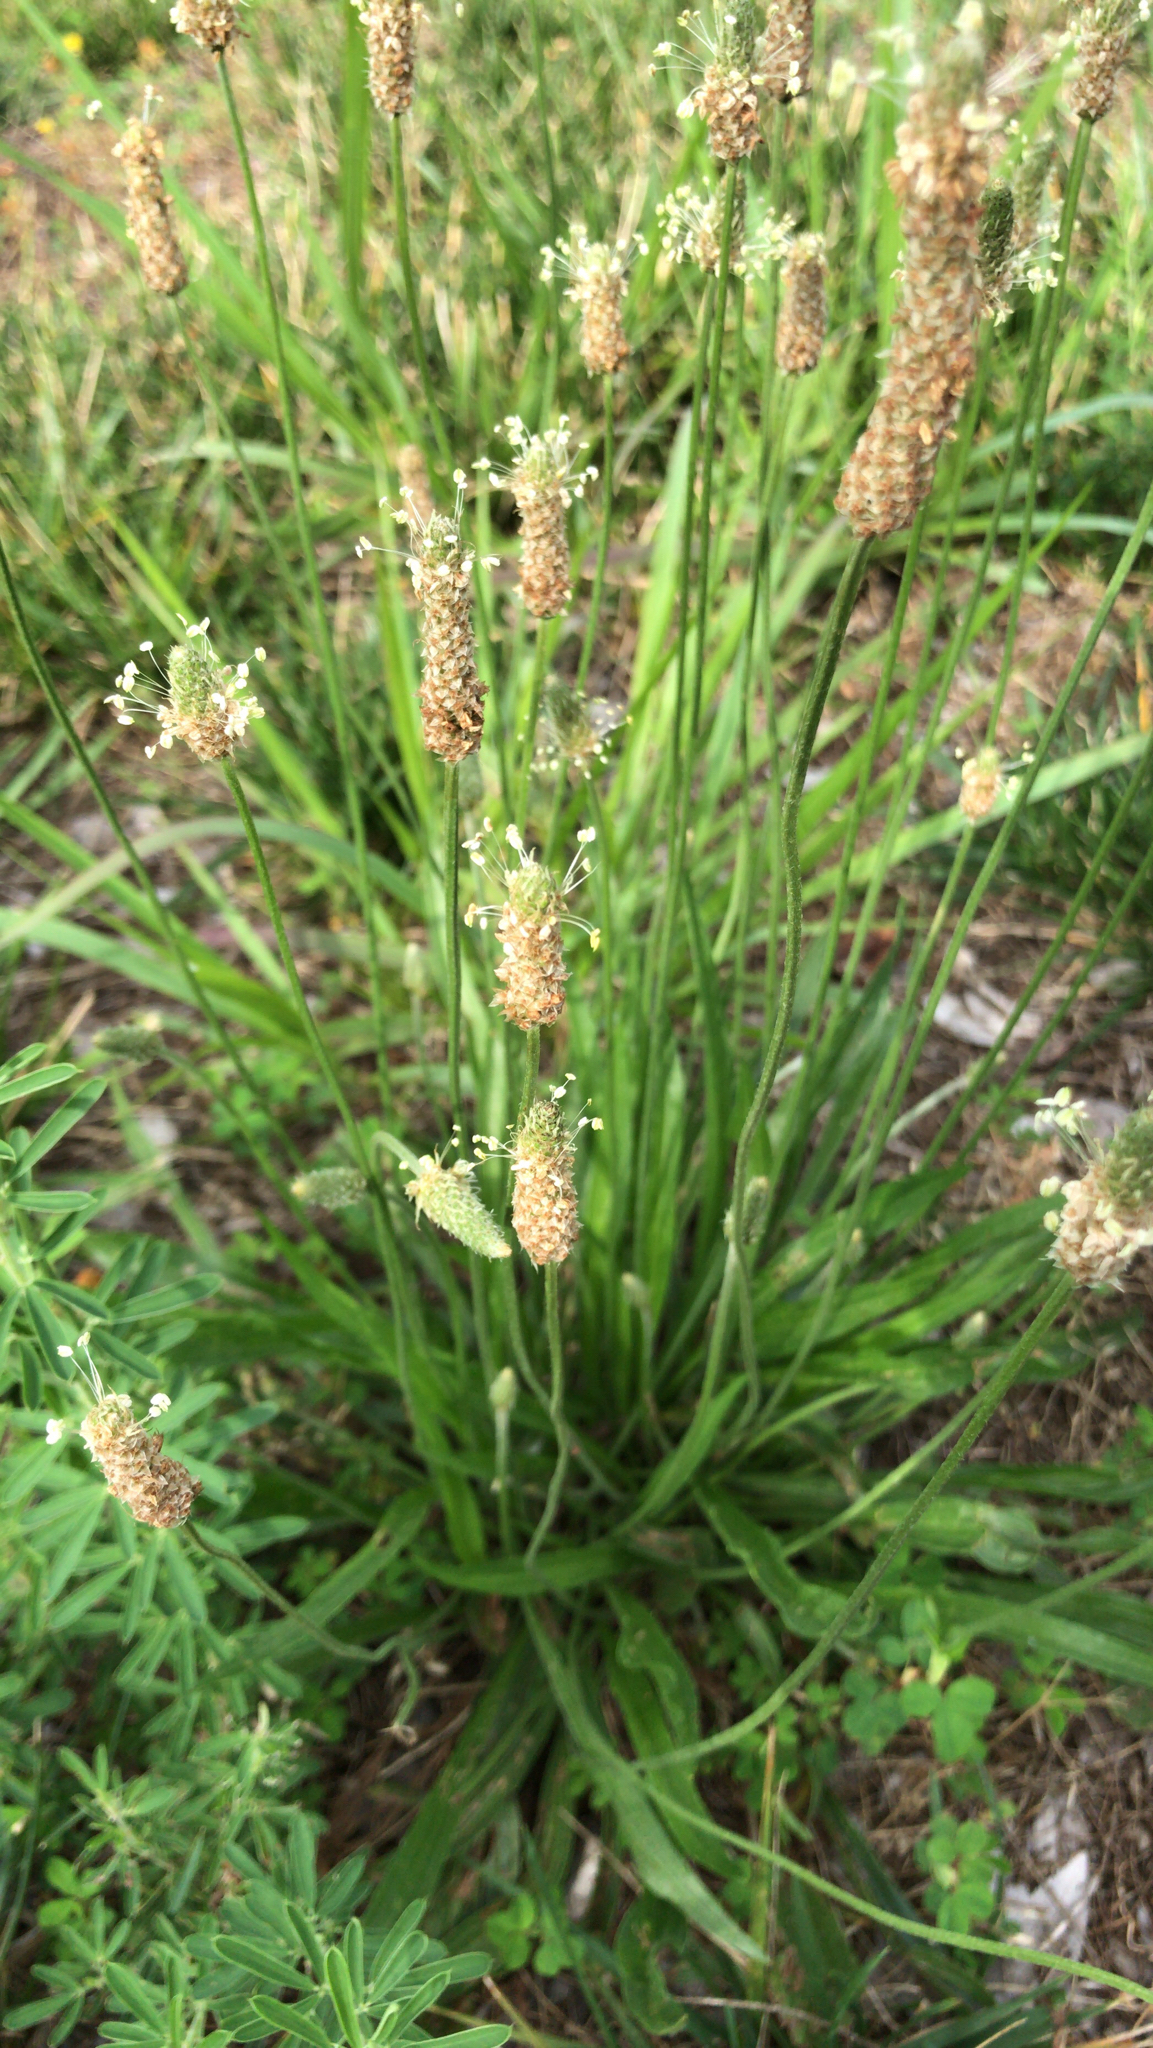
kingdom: Plantae
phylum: Tracheophyta
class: Magnoliopsida
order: Lamiales
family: Plantaginaceae
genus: Plantago
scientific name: Plantago lanceolata
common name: Ribwort plantain
